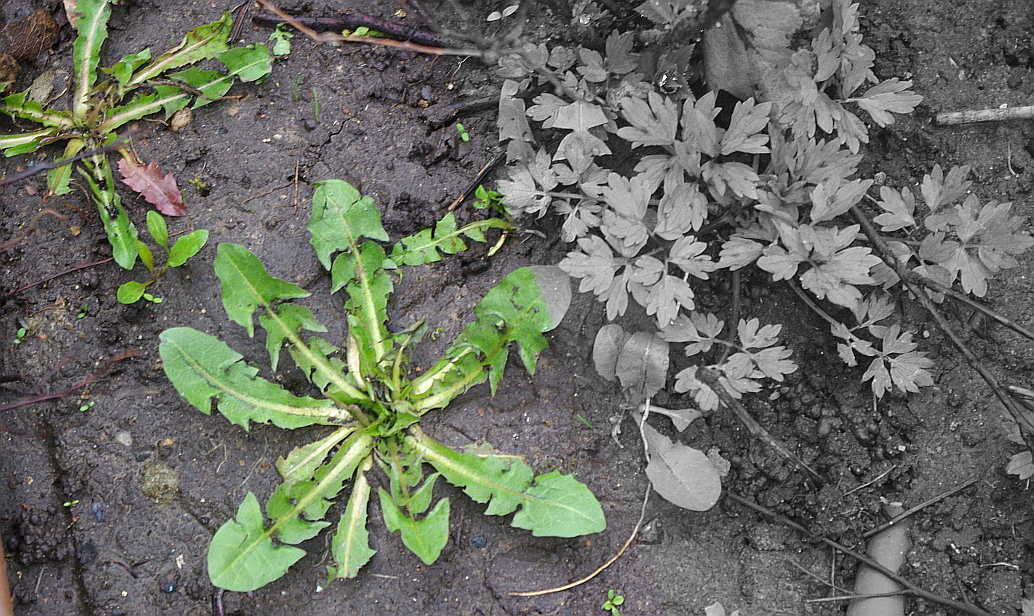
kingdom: Plantae
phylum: Tracheophyta
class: Magnoliopsida
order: Asterales
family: Asteraceae
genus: Taraxacum
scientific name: Taraxacum officinale
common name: Common dandelion
